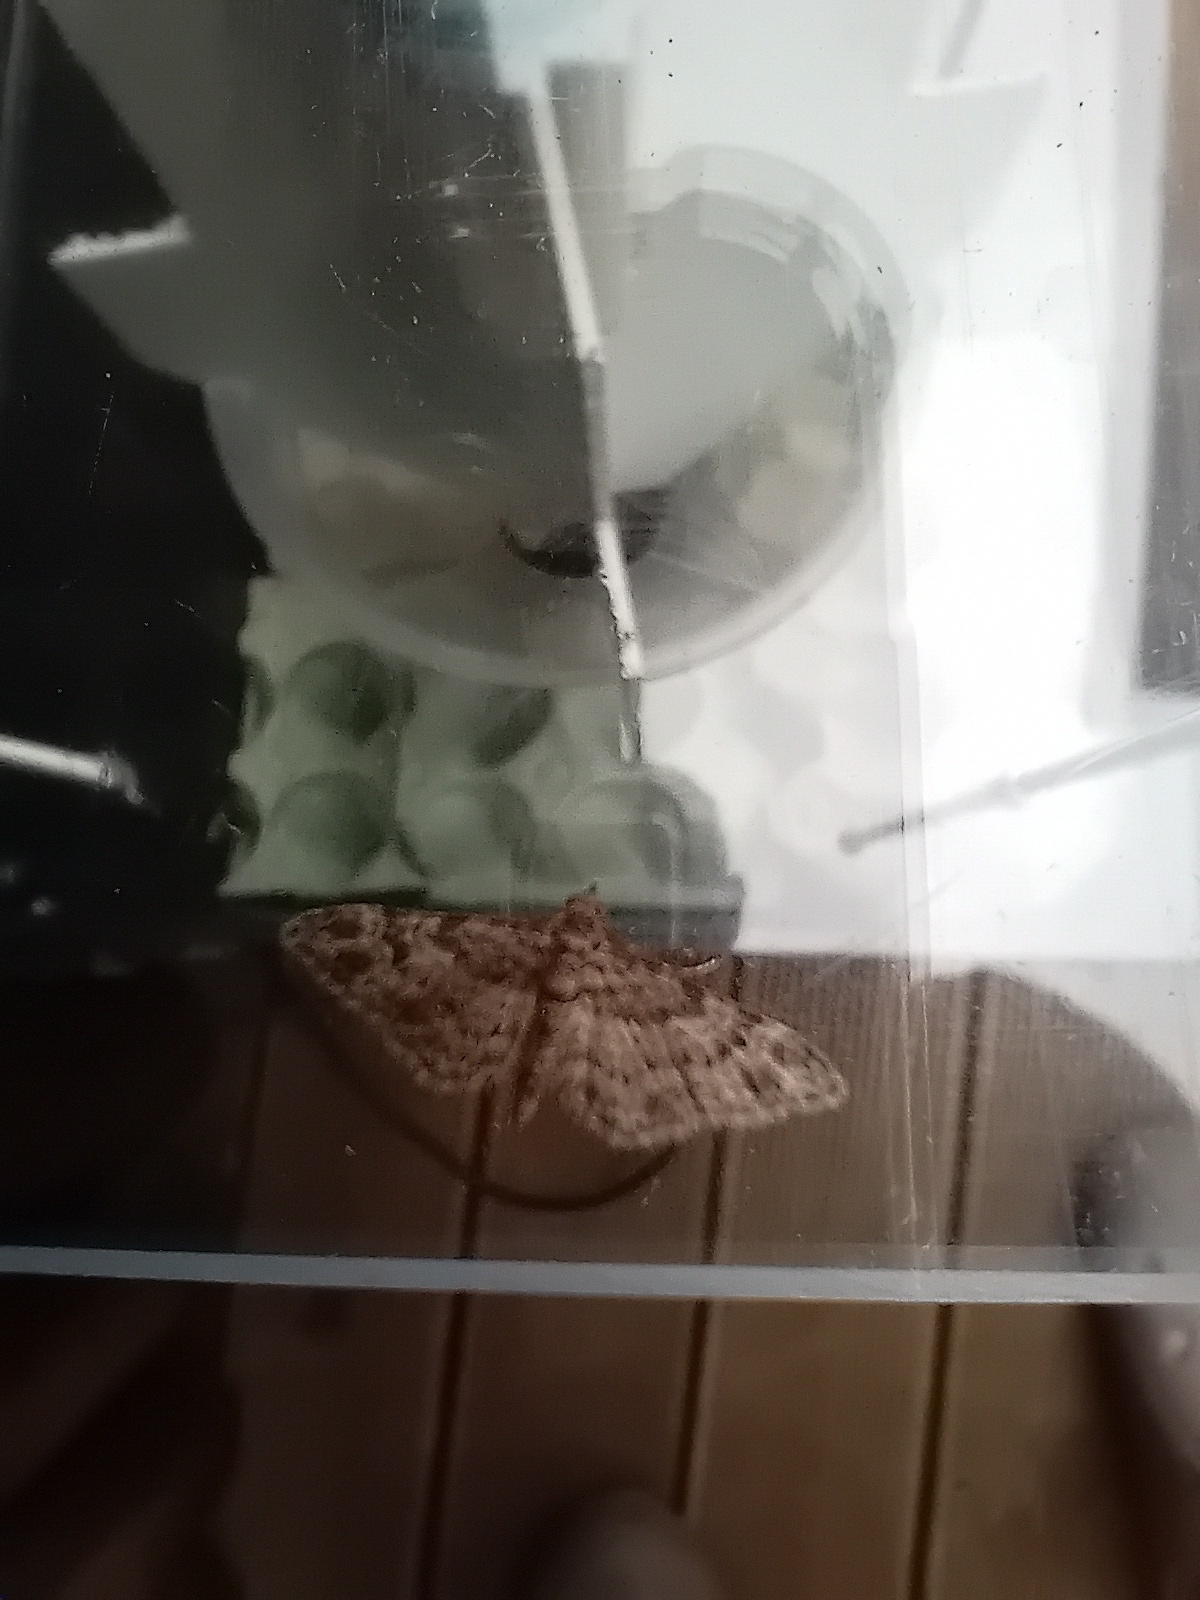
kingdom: Animalia
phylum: Arthropoda
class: Insecta
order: Lepidoptera
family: Geometridae
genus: Gymnoscelis
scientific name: Gymnoscelis rufifasciata
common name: Double-striped pug
